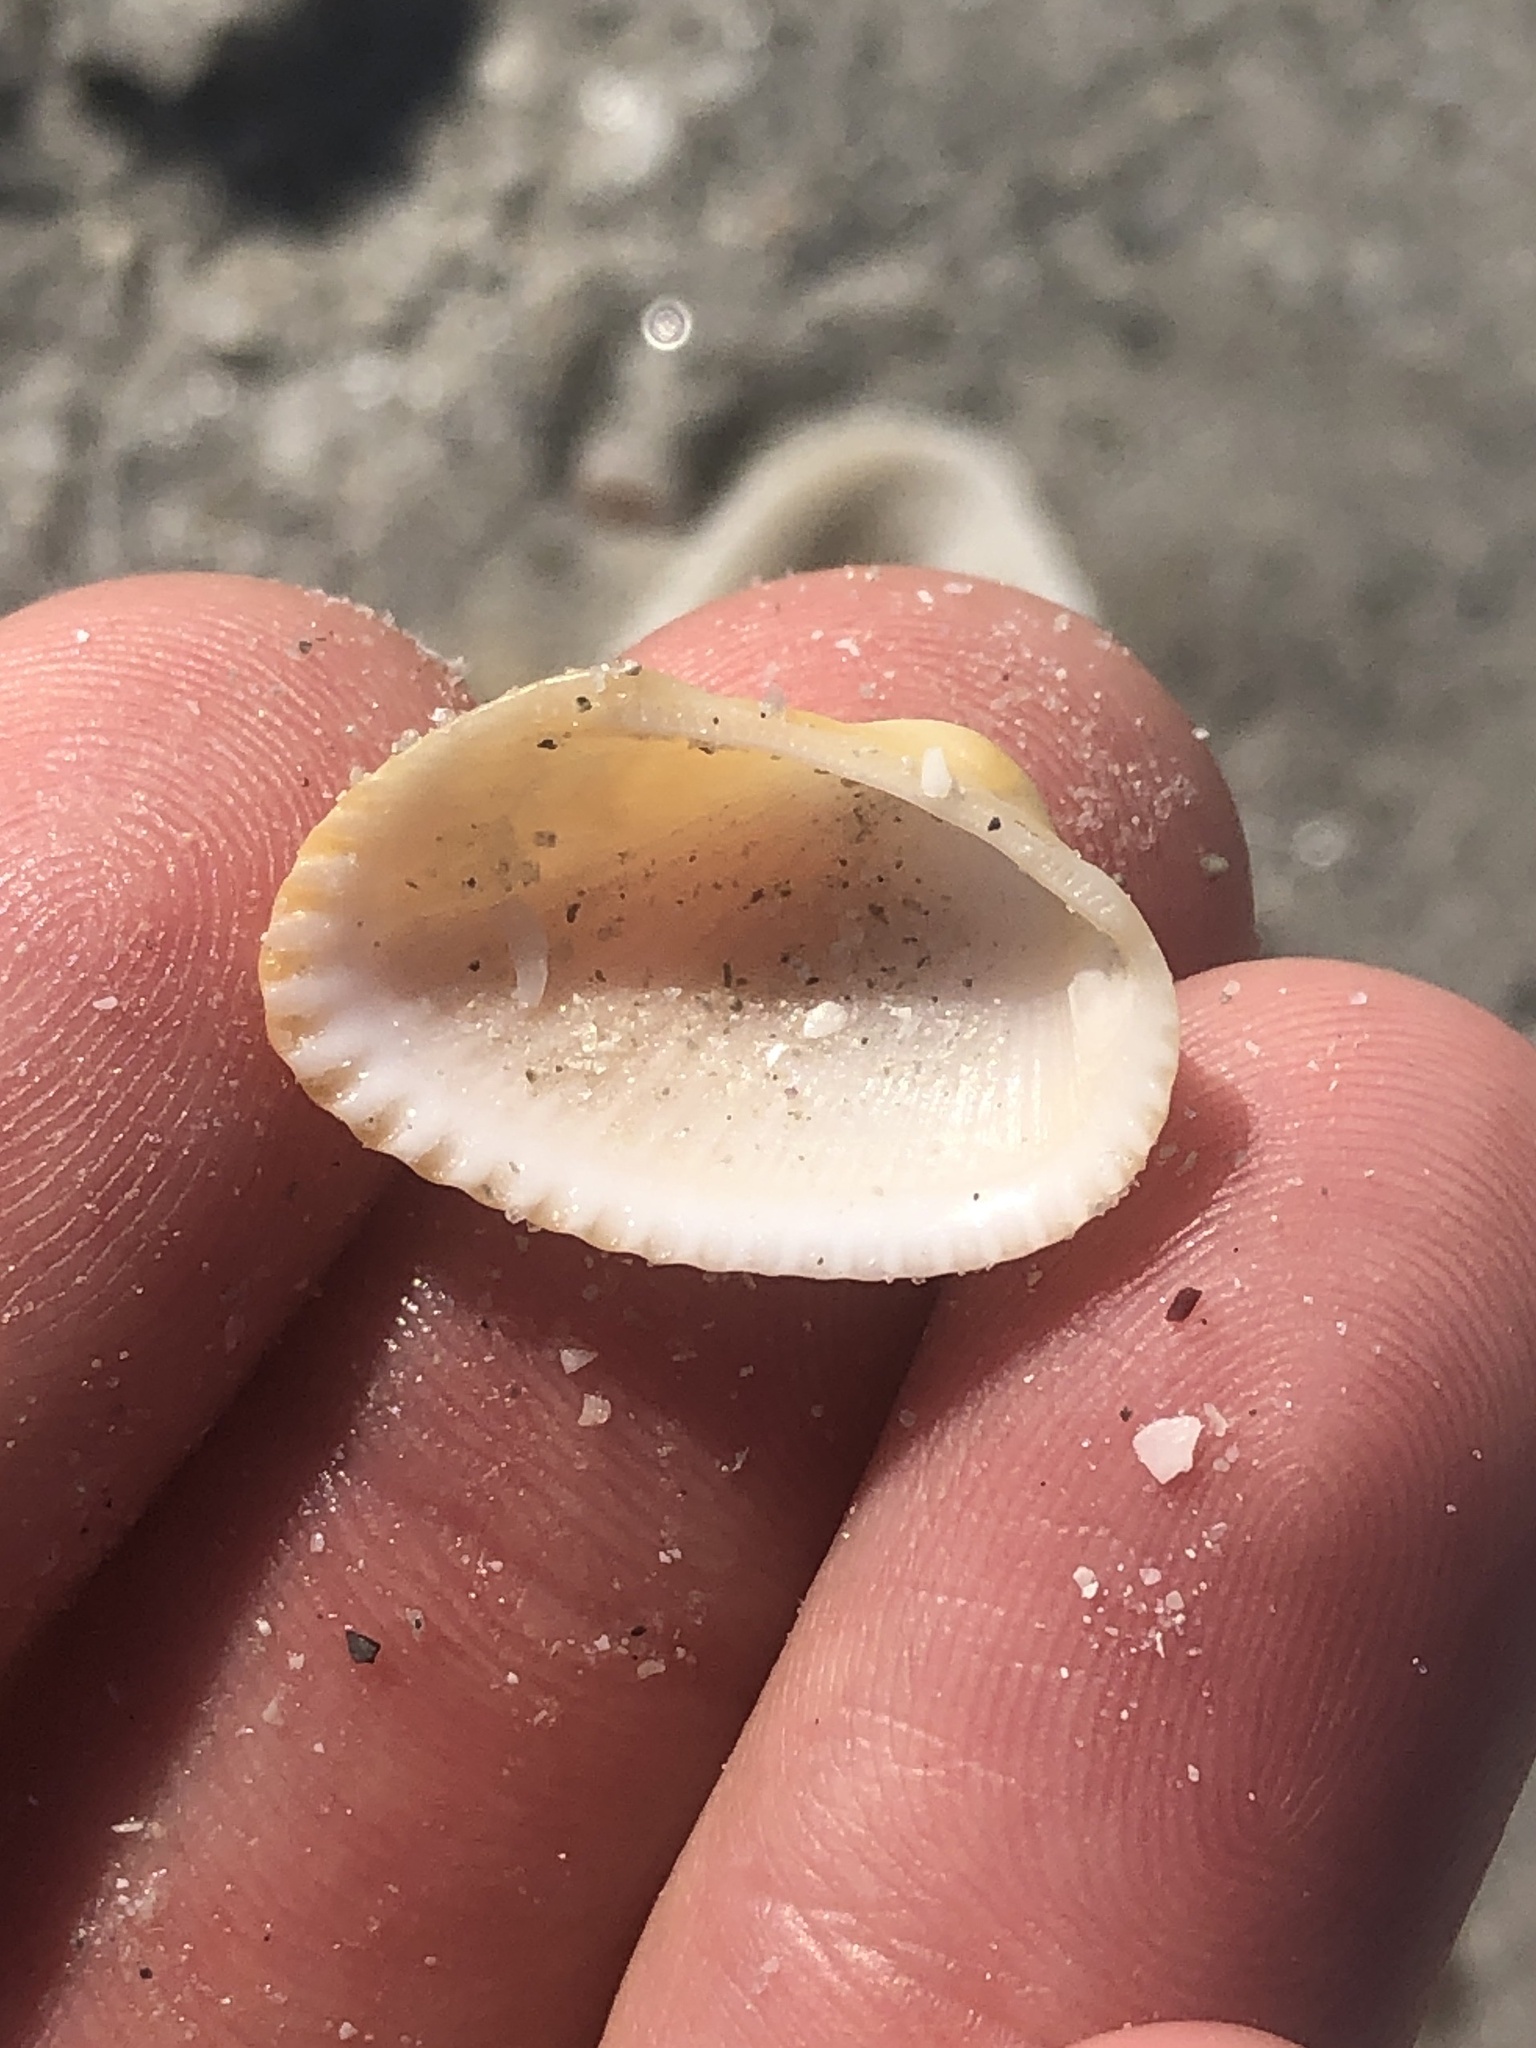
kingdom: Animalia
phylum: Mollusca
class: Bivalvia
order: Arcida
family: Arcidae
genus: Anadara
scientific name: Anadara transversa
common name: Transverse ark
